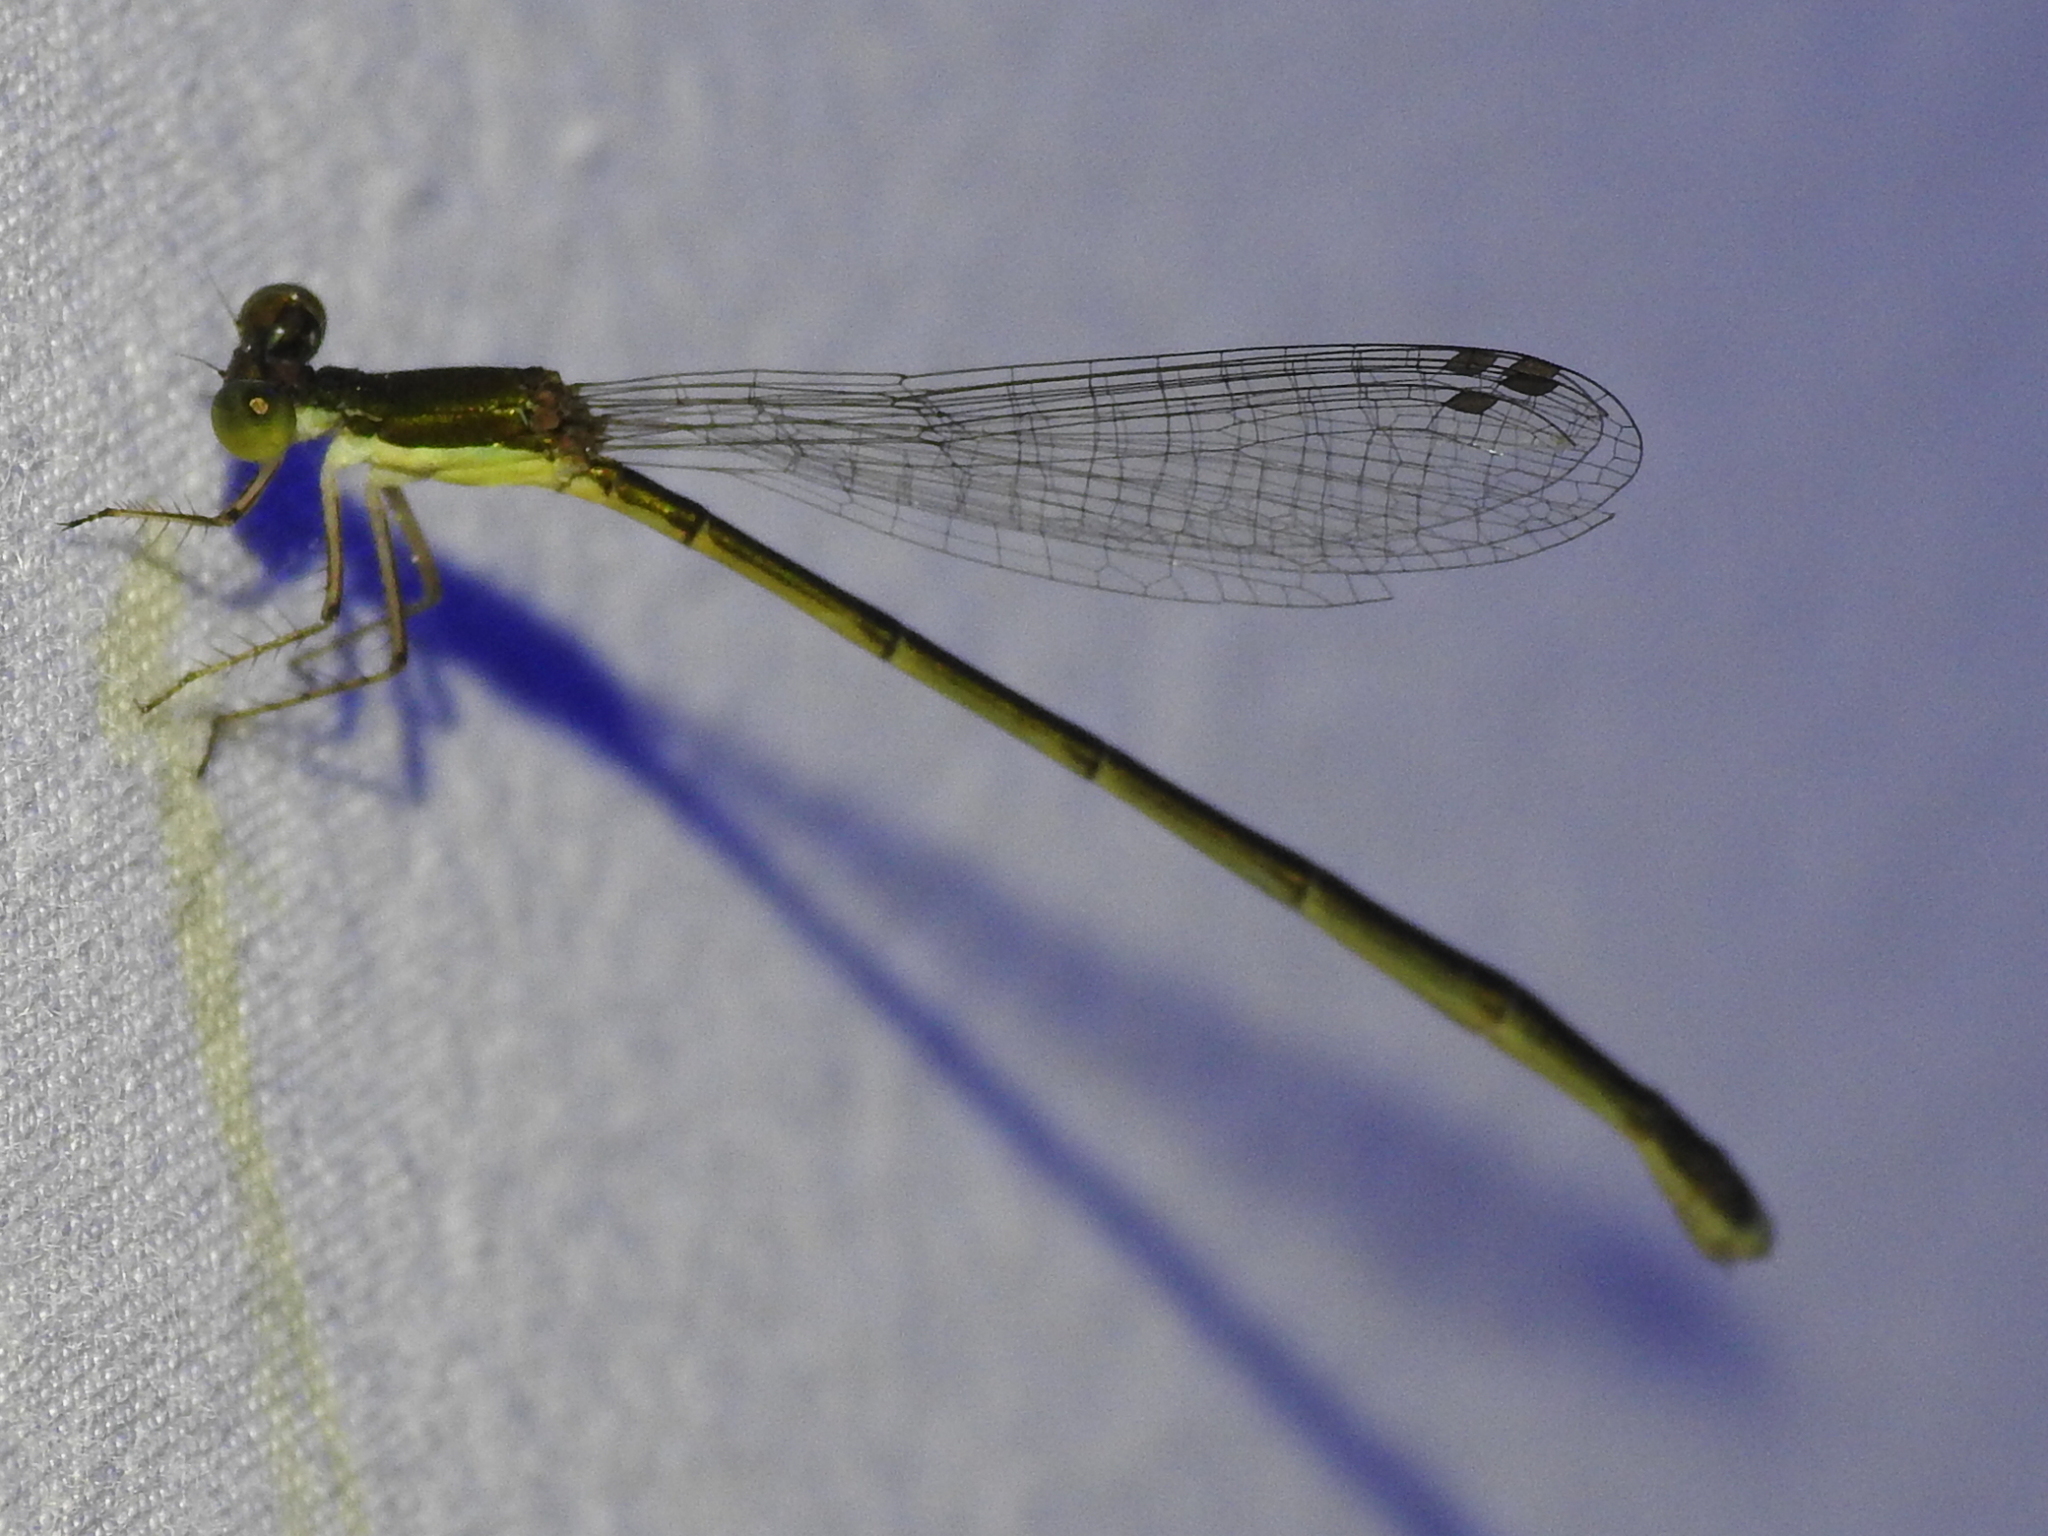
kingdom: Animalia
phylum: Arthropoda
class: Insecta
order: Odonata
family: Coenagrionidae
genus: Nehalennia
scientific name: Nehalennia integricollis
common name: Southern sprite
